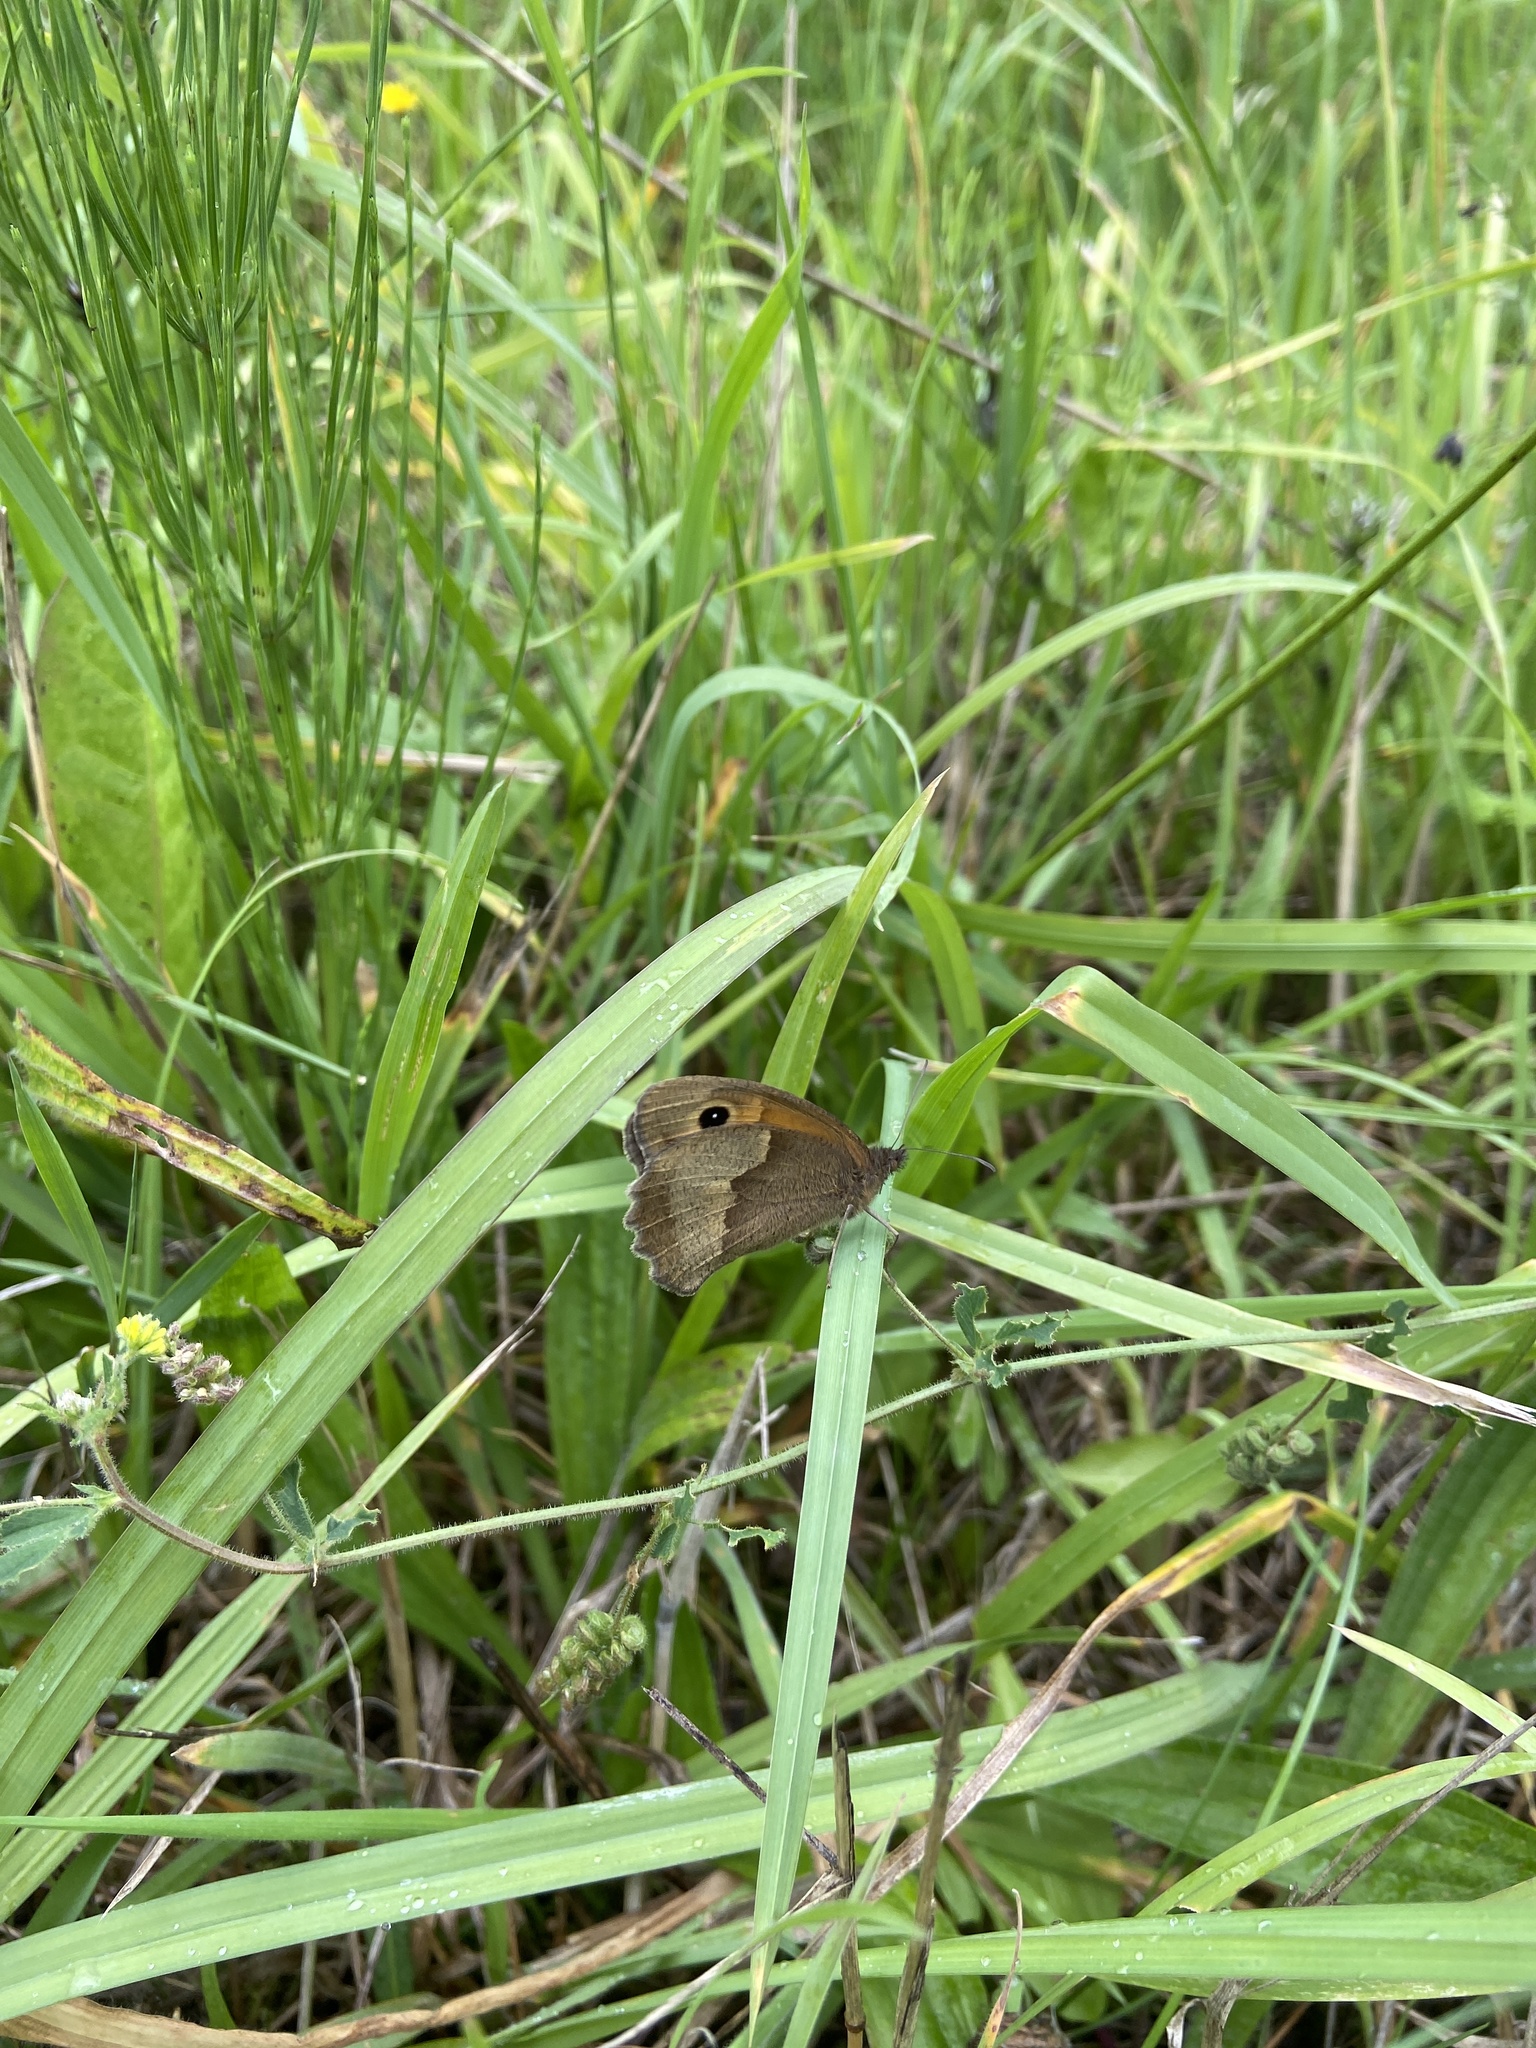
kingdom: Animalia
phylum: Arthropoda
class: Insecta
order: Lepidoptera
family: Nymphalidae
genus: Maniola
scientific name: Maniola jurtina
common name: Meadow brown
